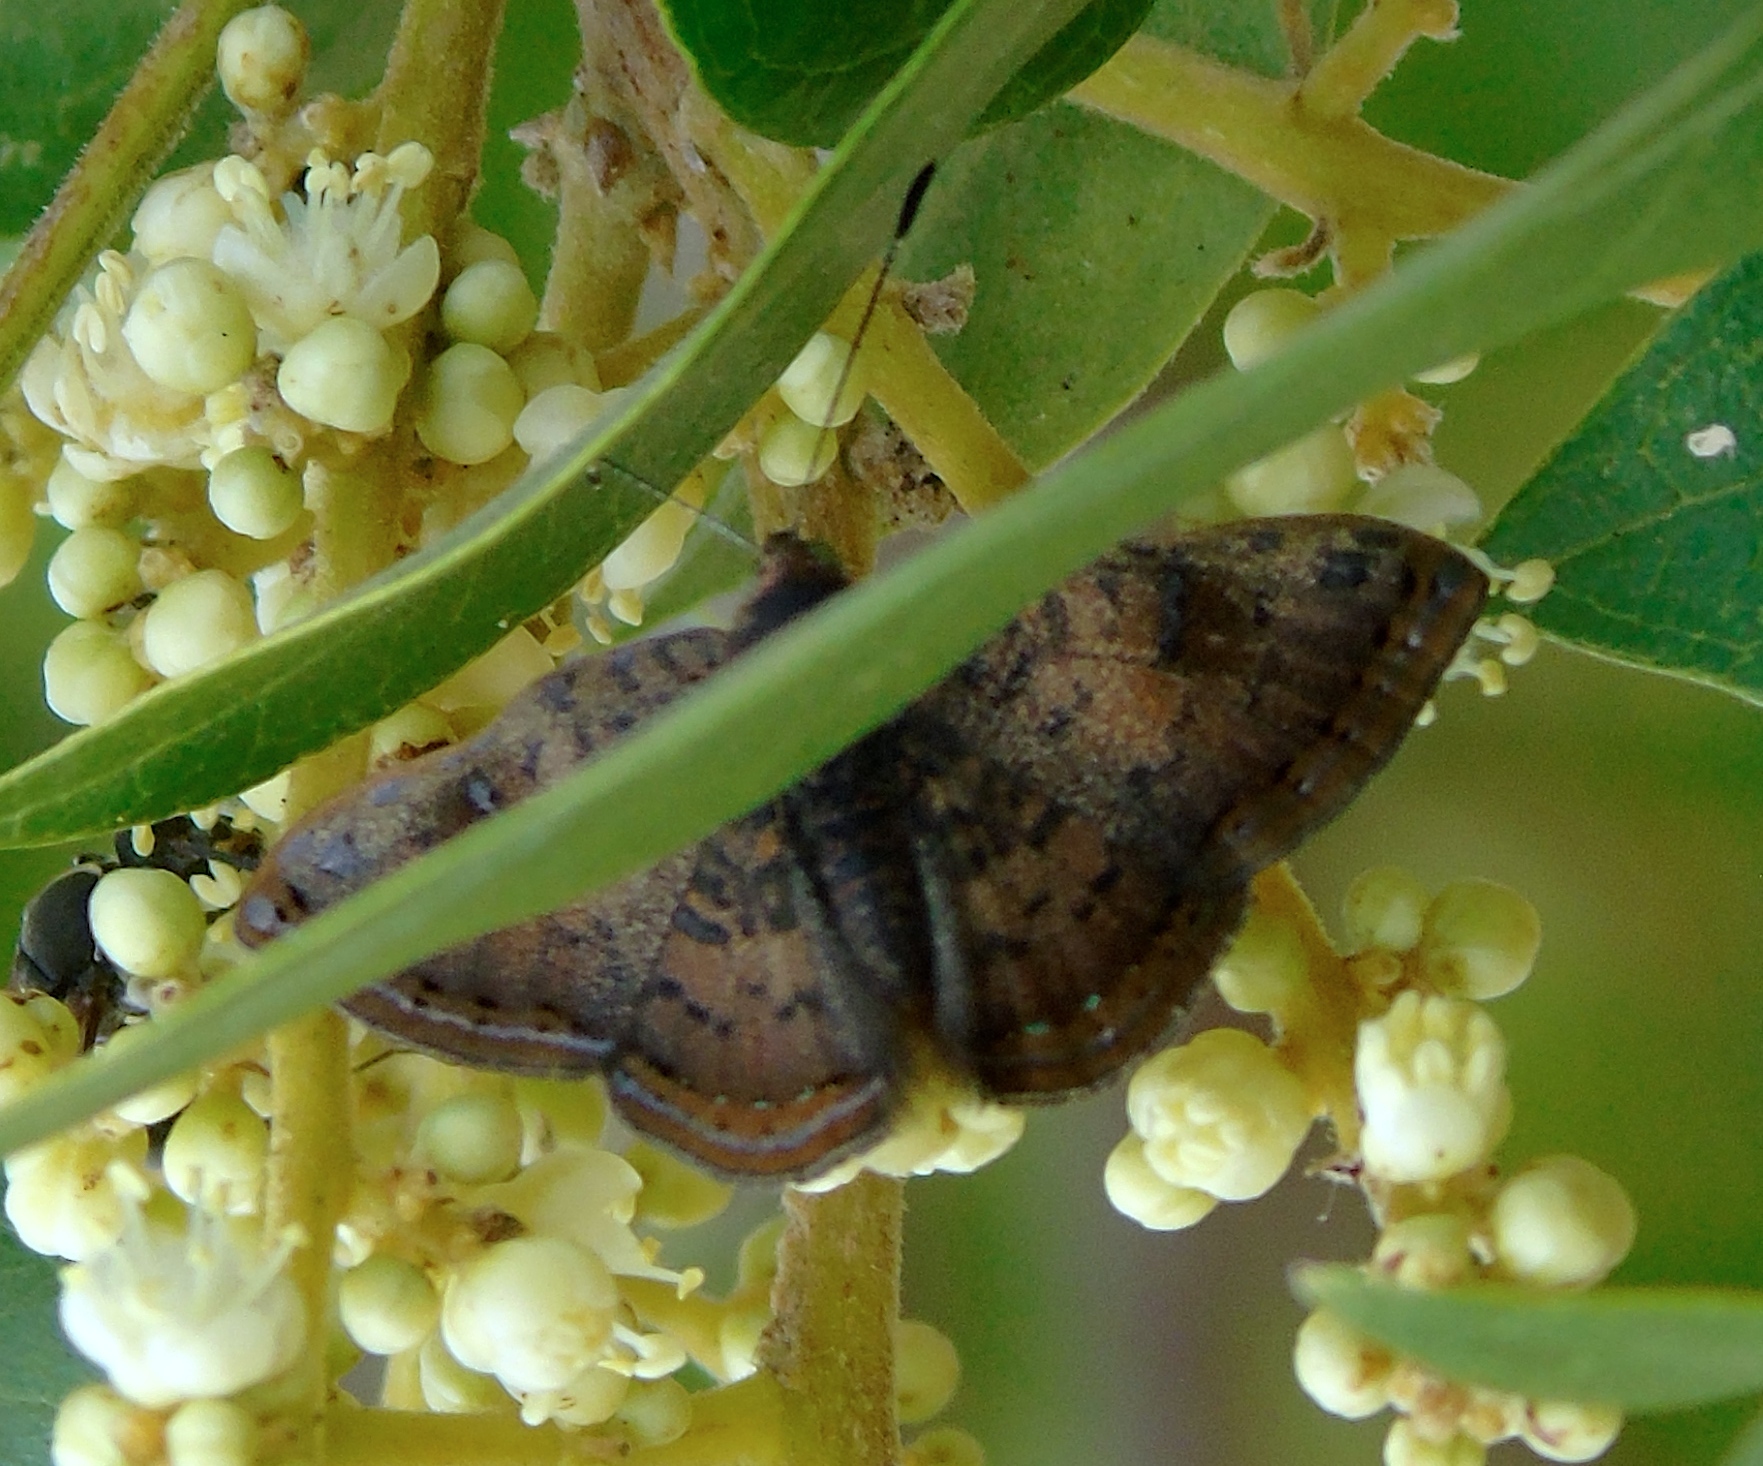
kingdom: Animalia
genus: Caria
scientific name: Caria ino
